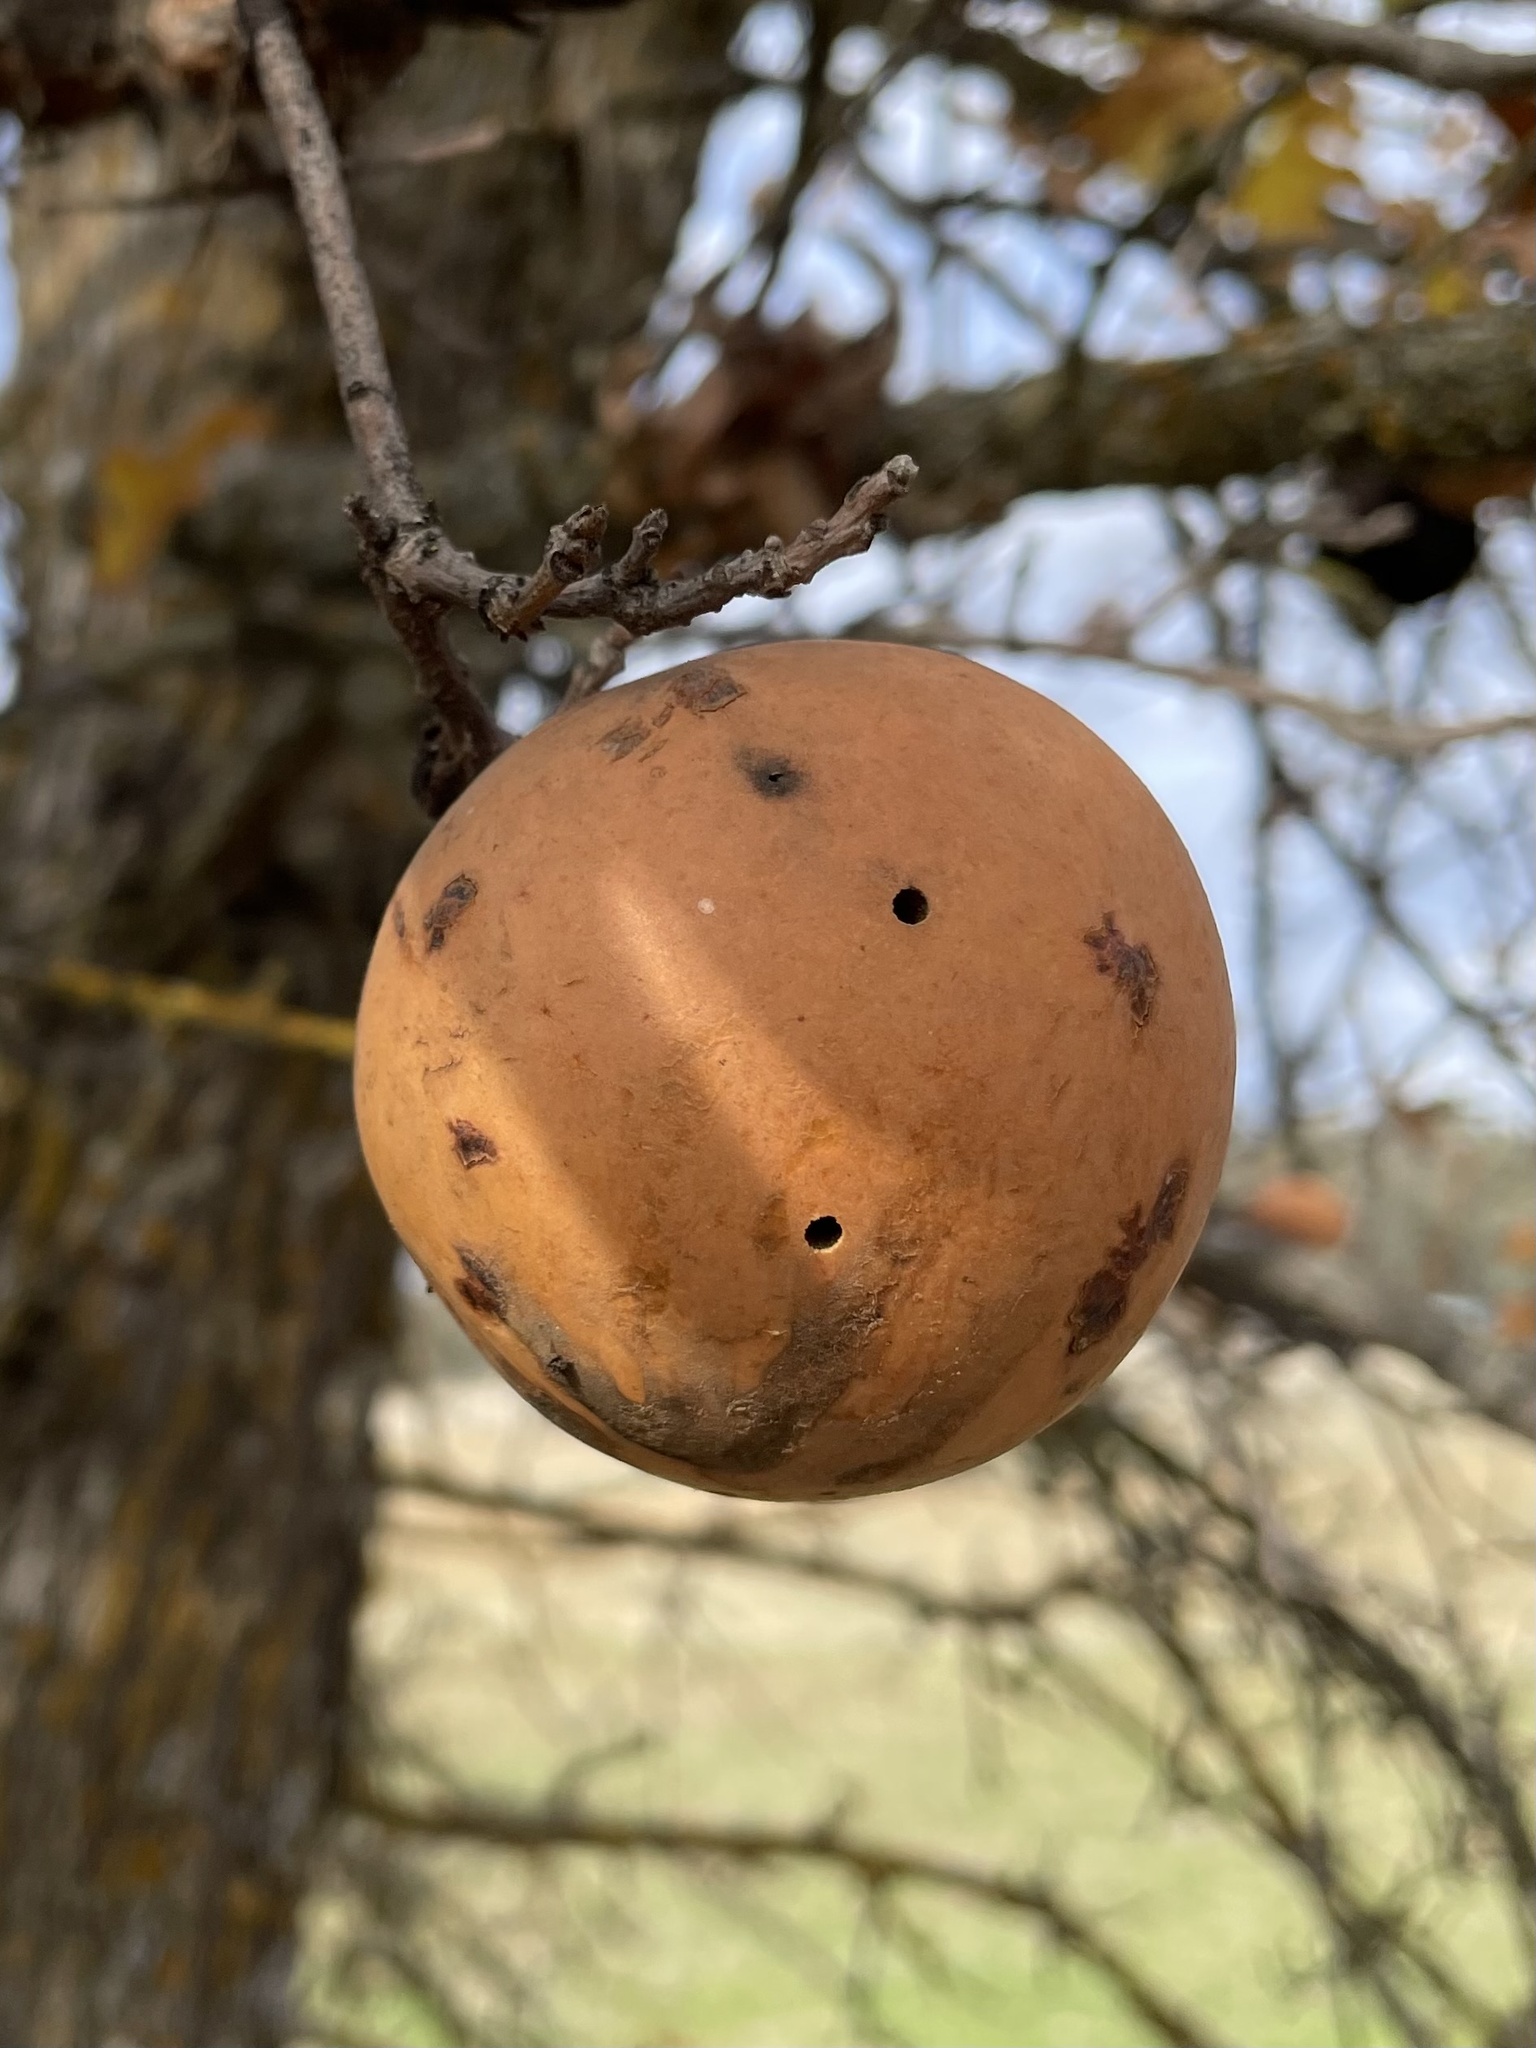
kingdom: Animalia
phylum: Arthropoda
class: Insecta
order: Hymenoptera
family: Cynipidae
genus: Andricus
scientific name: Andricus quercuscalifornicus
